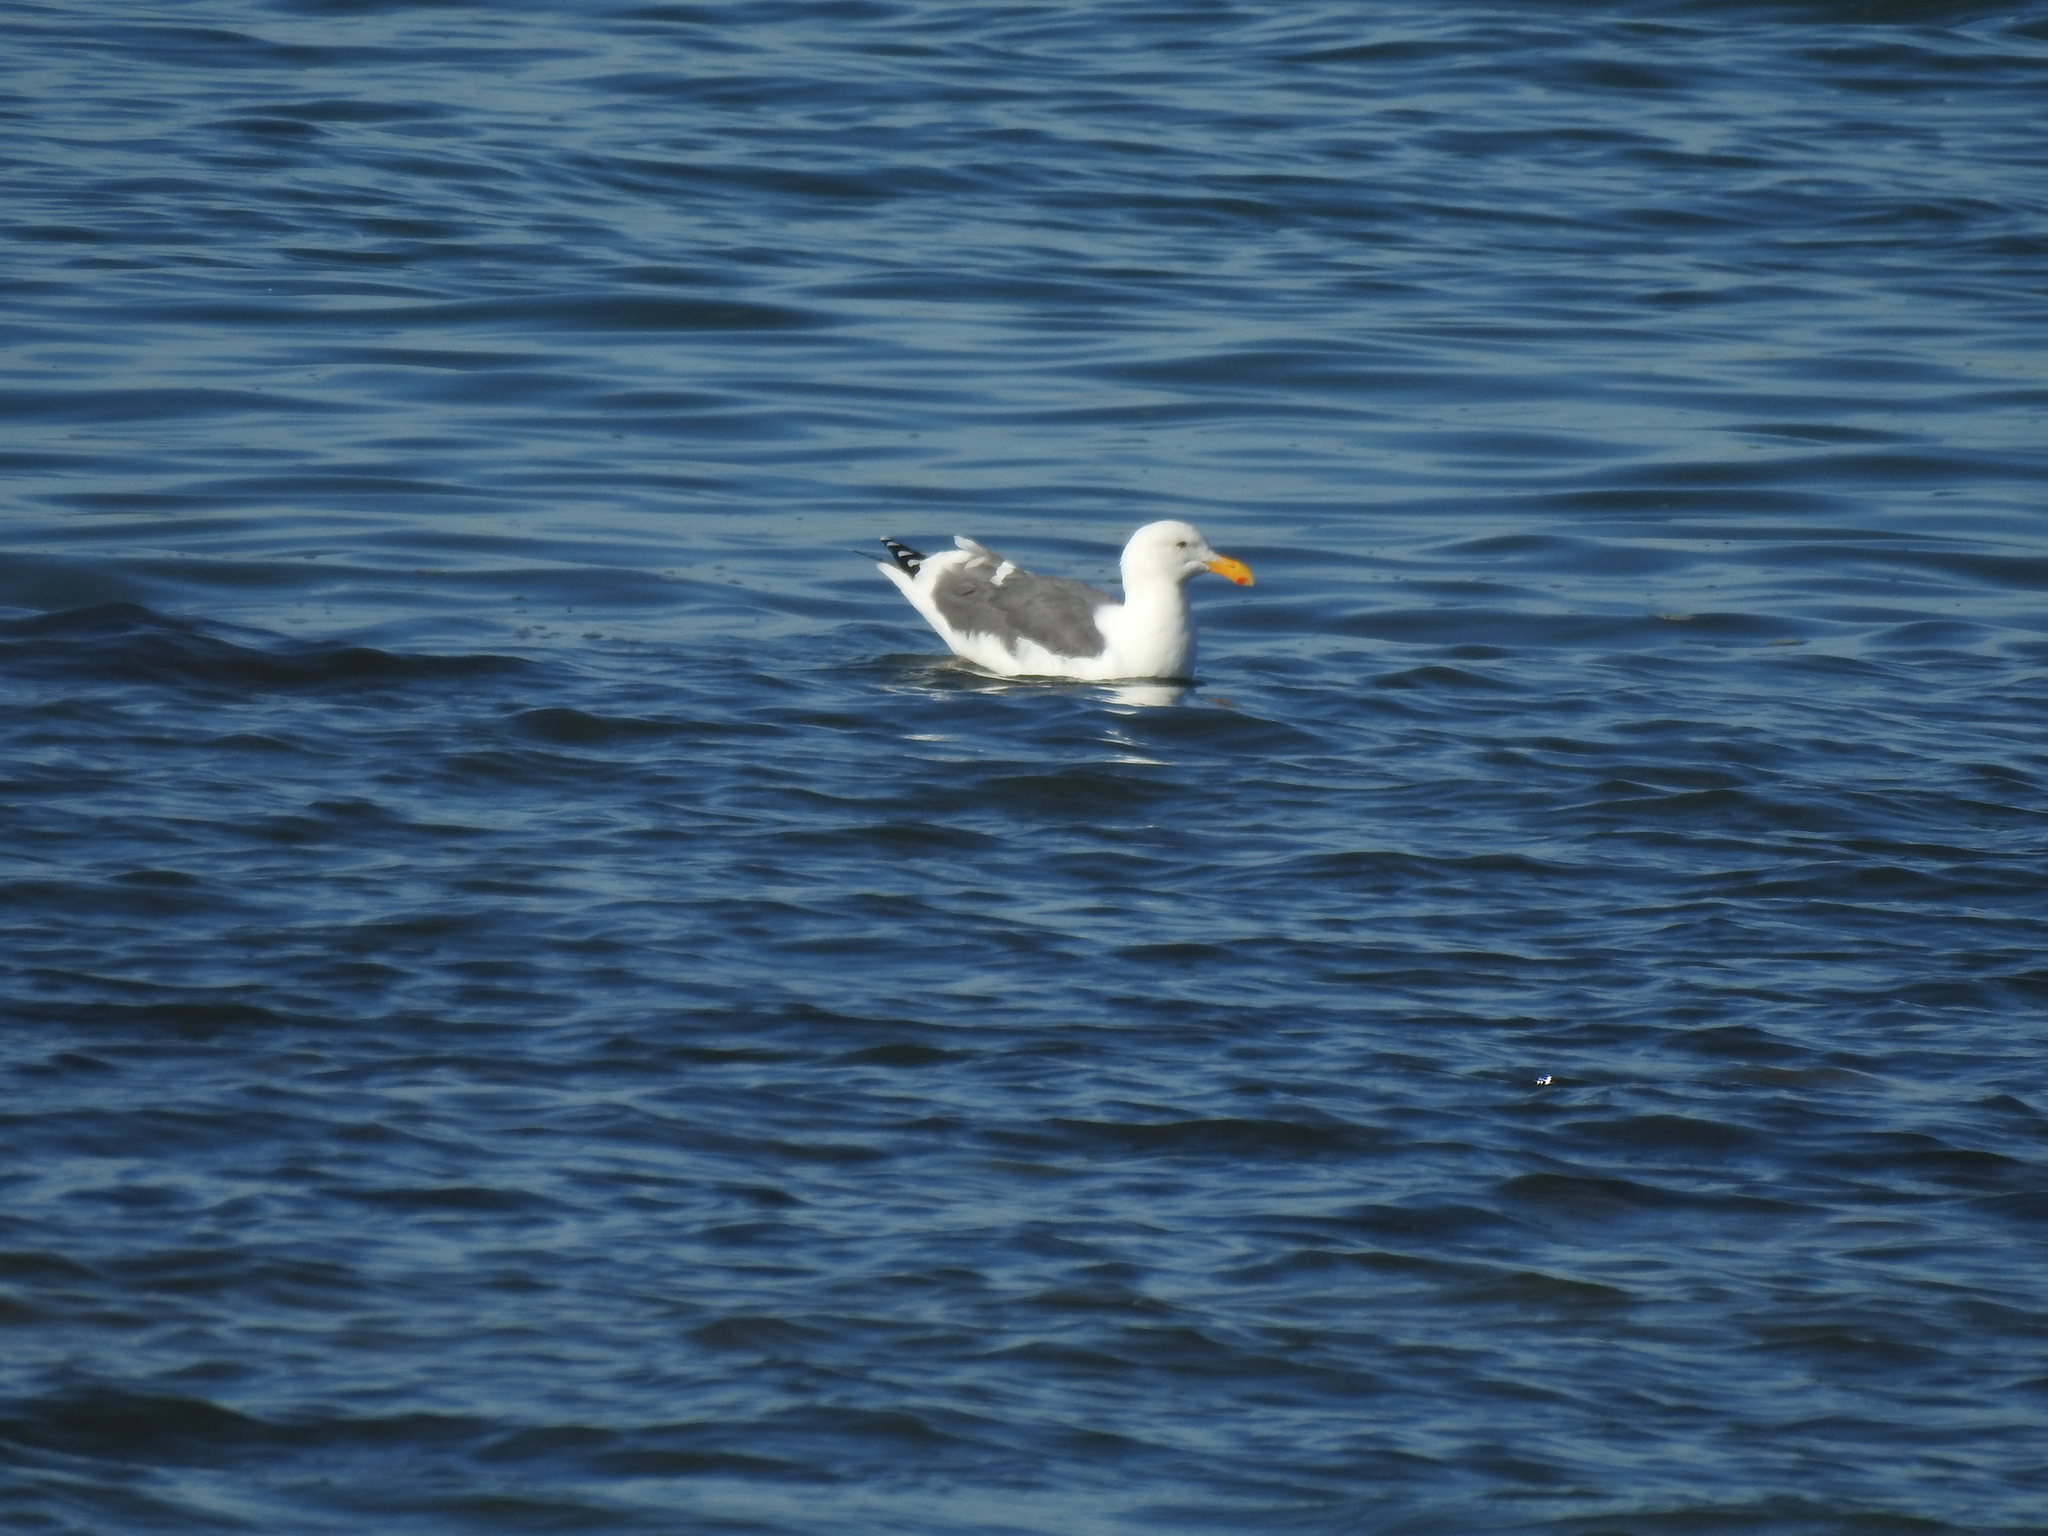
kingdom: Animalia
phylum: Chordata
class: Aves
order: Charadriiformes
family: Laridae
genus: Larus
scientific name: Larus occidentalis
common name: Western gull
